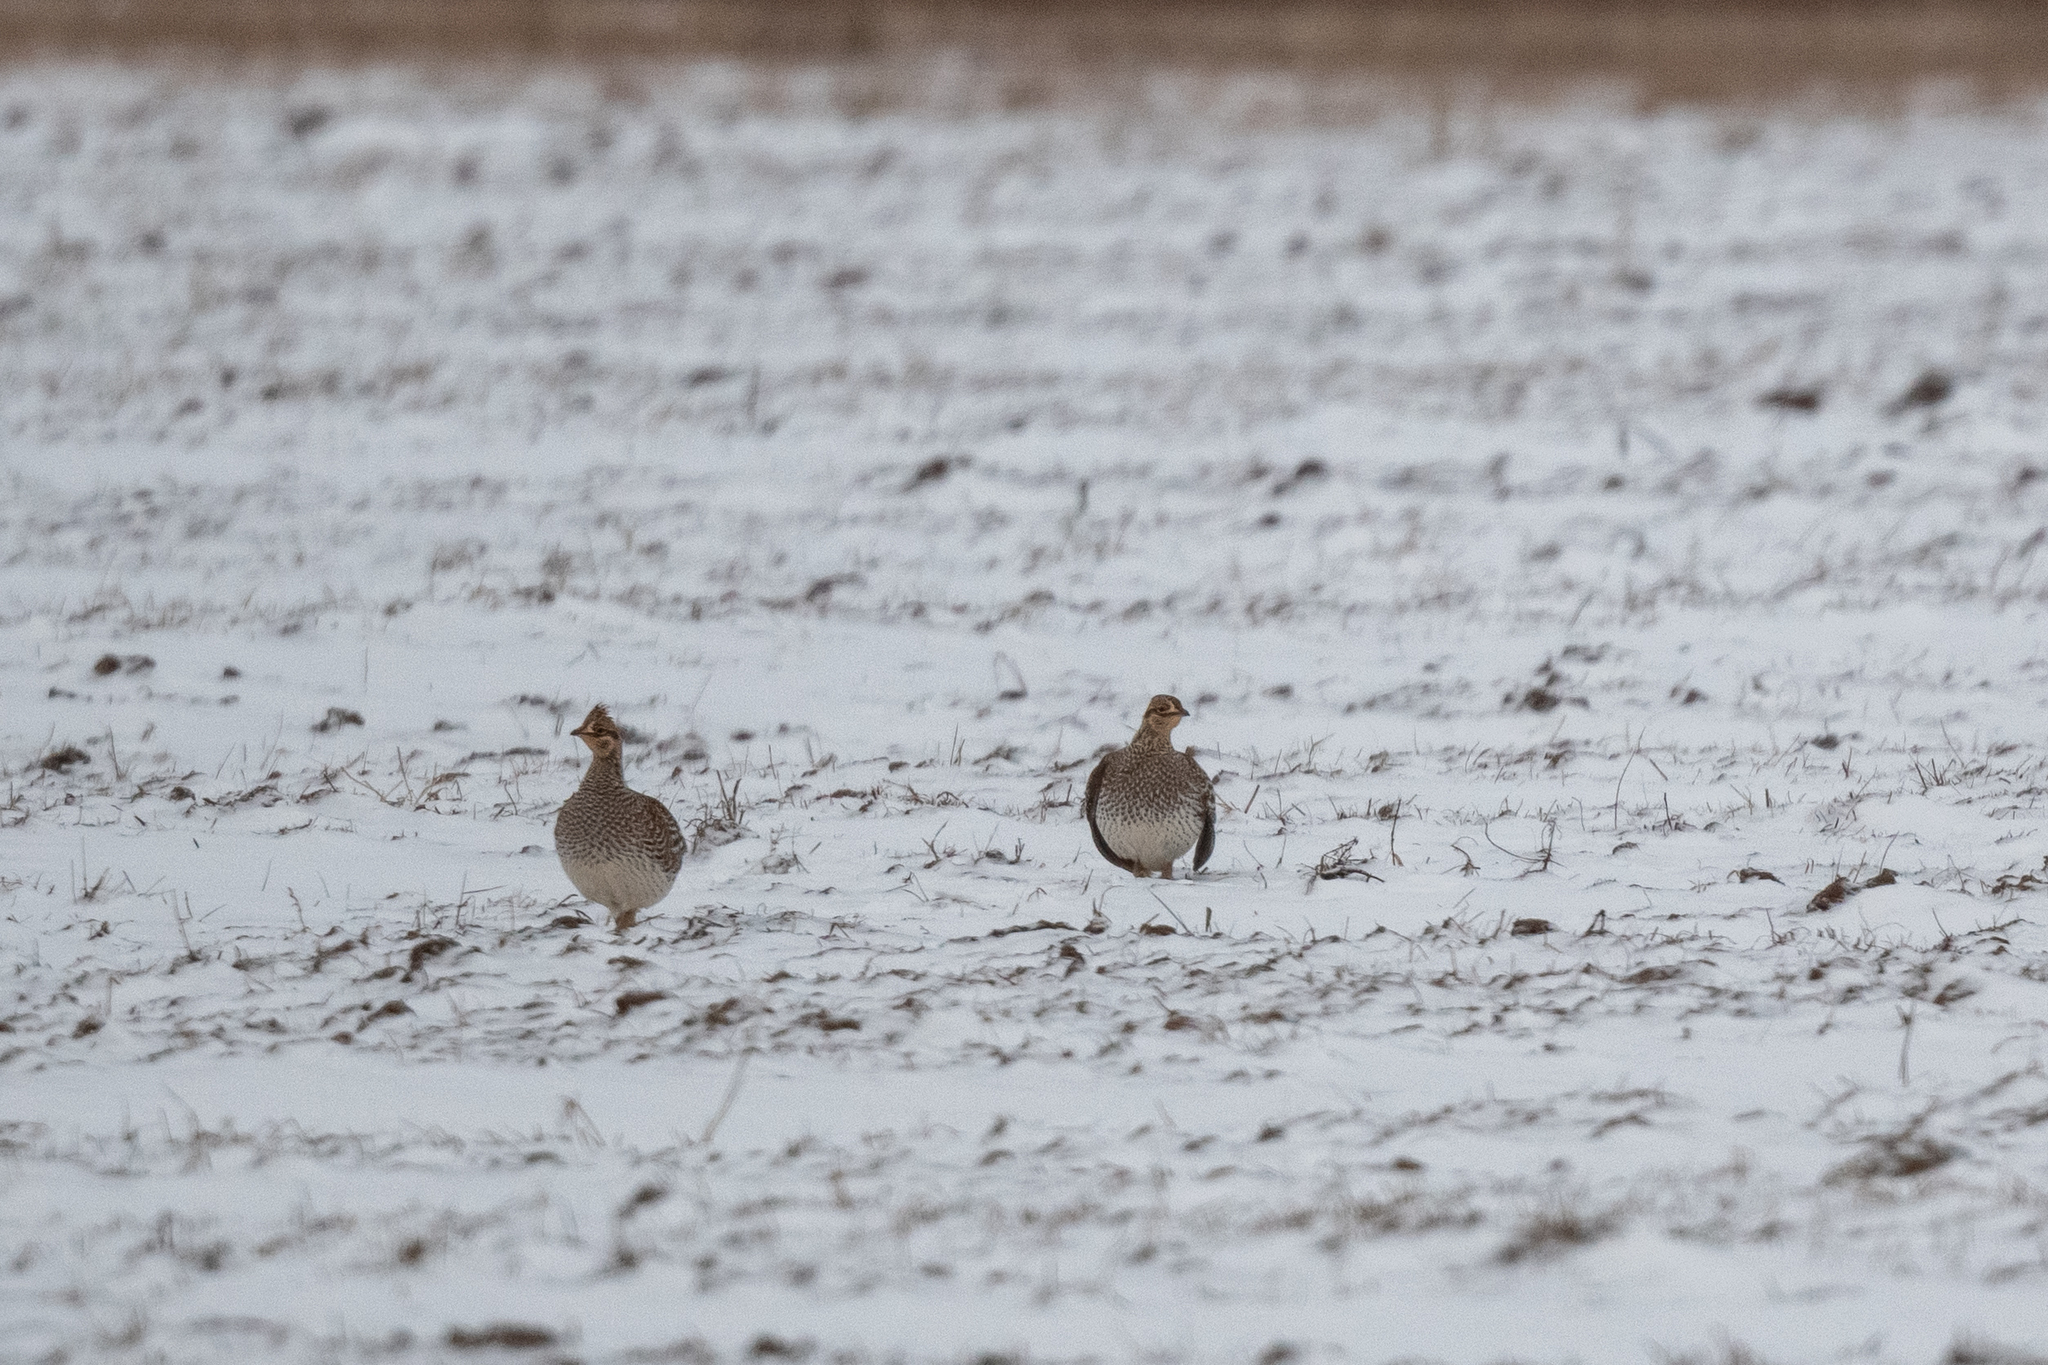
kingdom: Animalia
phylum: Chordata
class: Aves
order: Galliformes
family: Phasianidae
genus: Tympanuchus
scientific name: Tympanuchus phasianellus
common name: Sharp-tailed grouse
